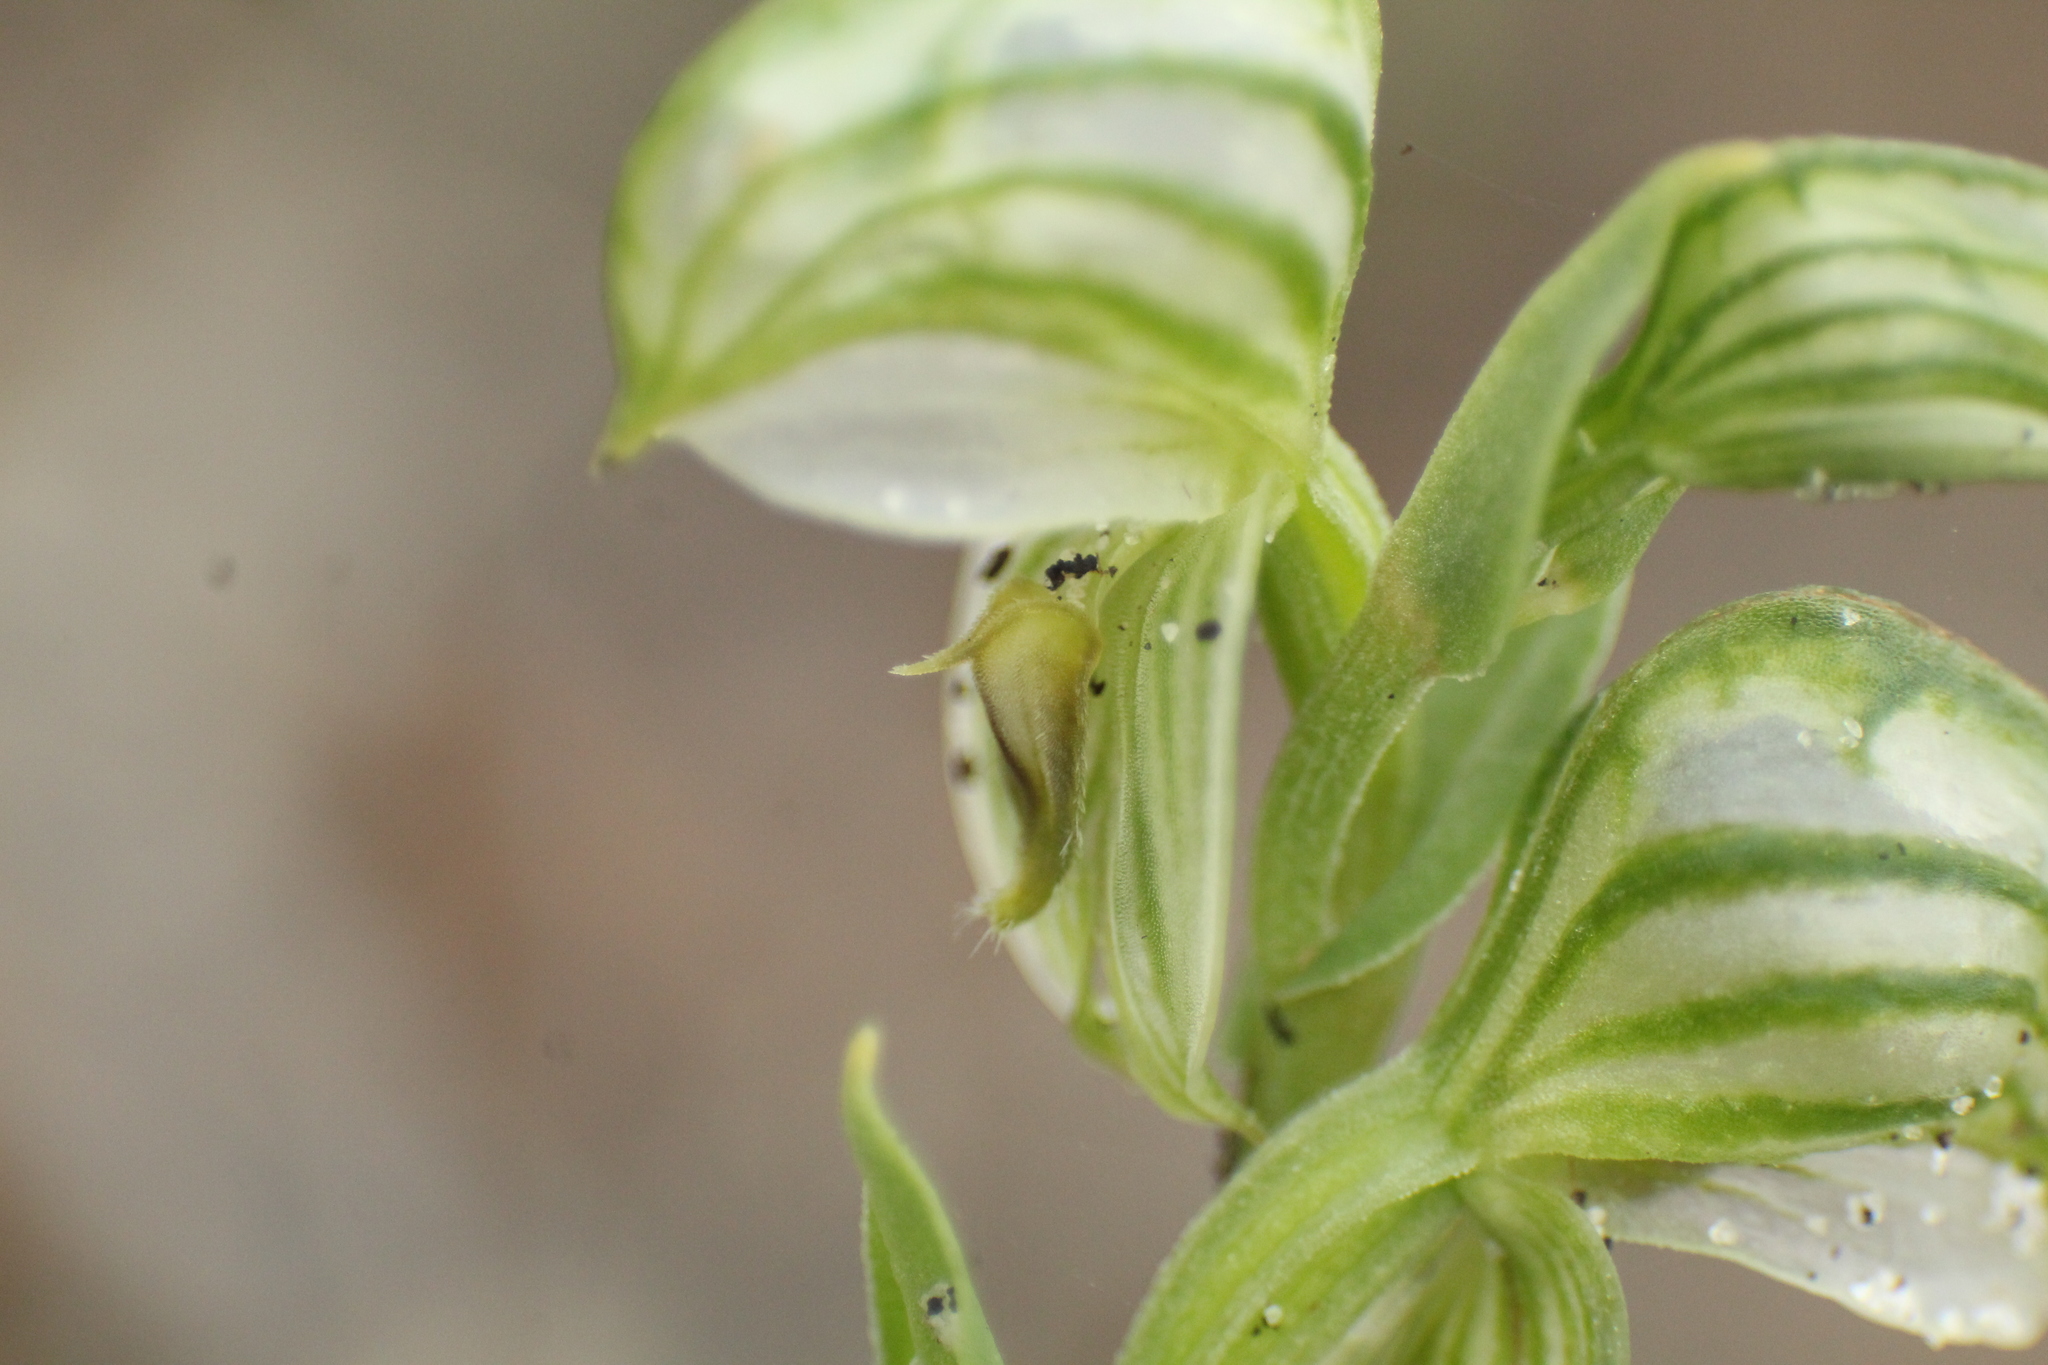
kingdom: Plantae
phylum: Tracheophyta
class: Liliopsida
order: Asparagales
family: Orchidaceae
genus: Pterostylis
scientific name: Pterostylis vittata
